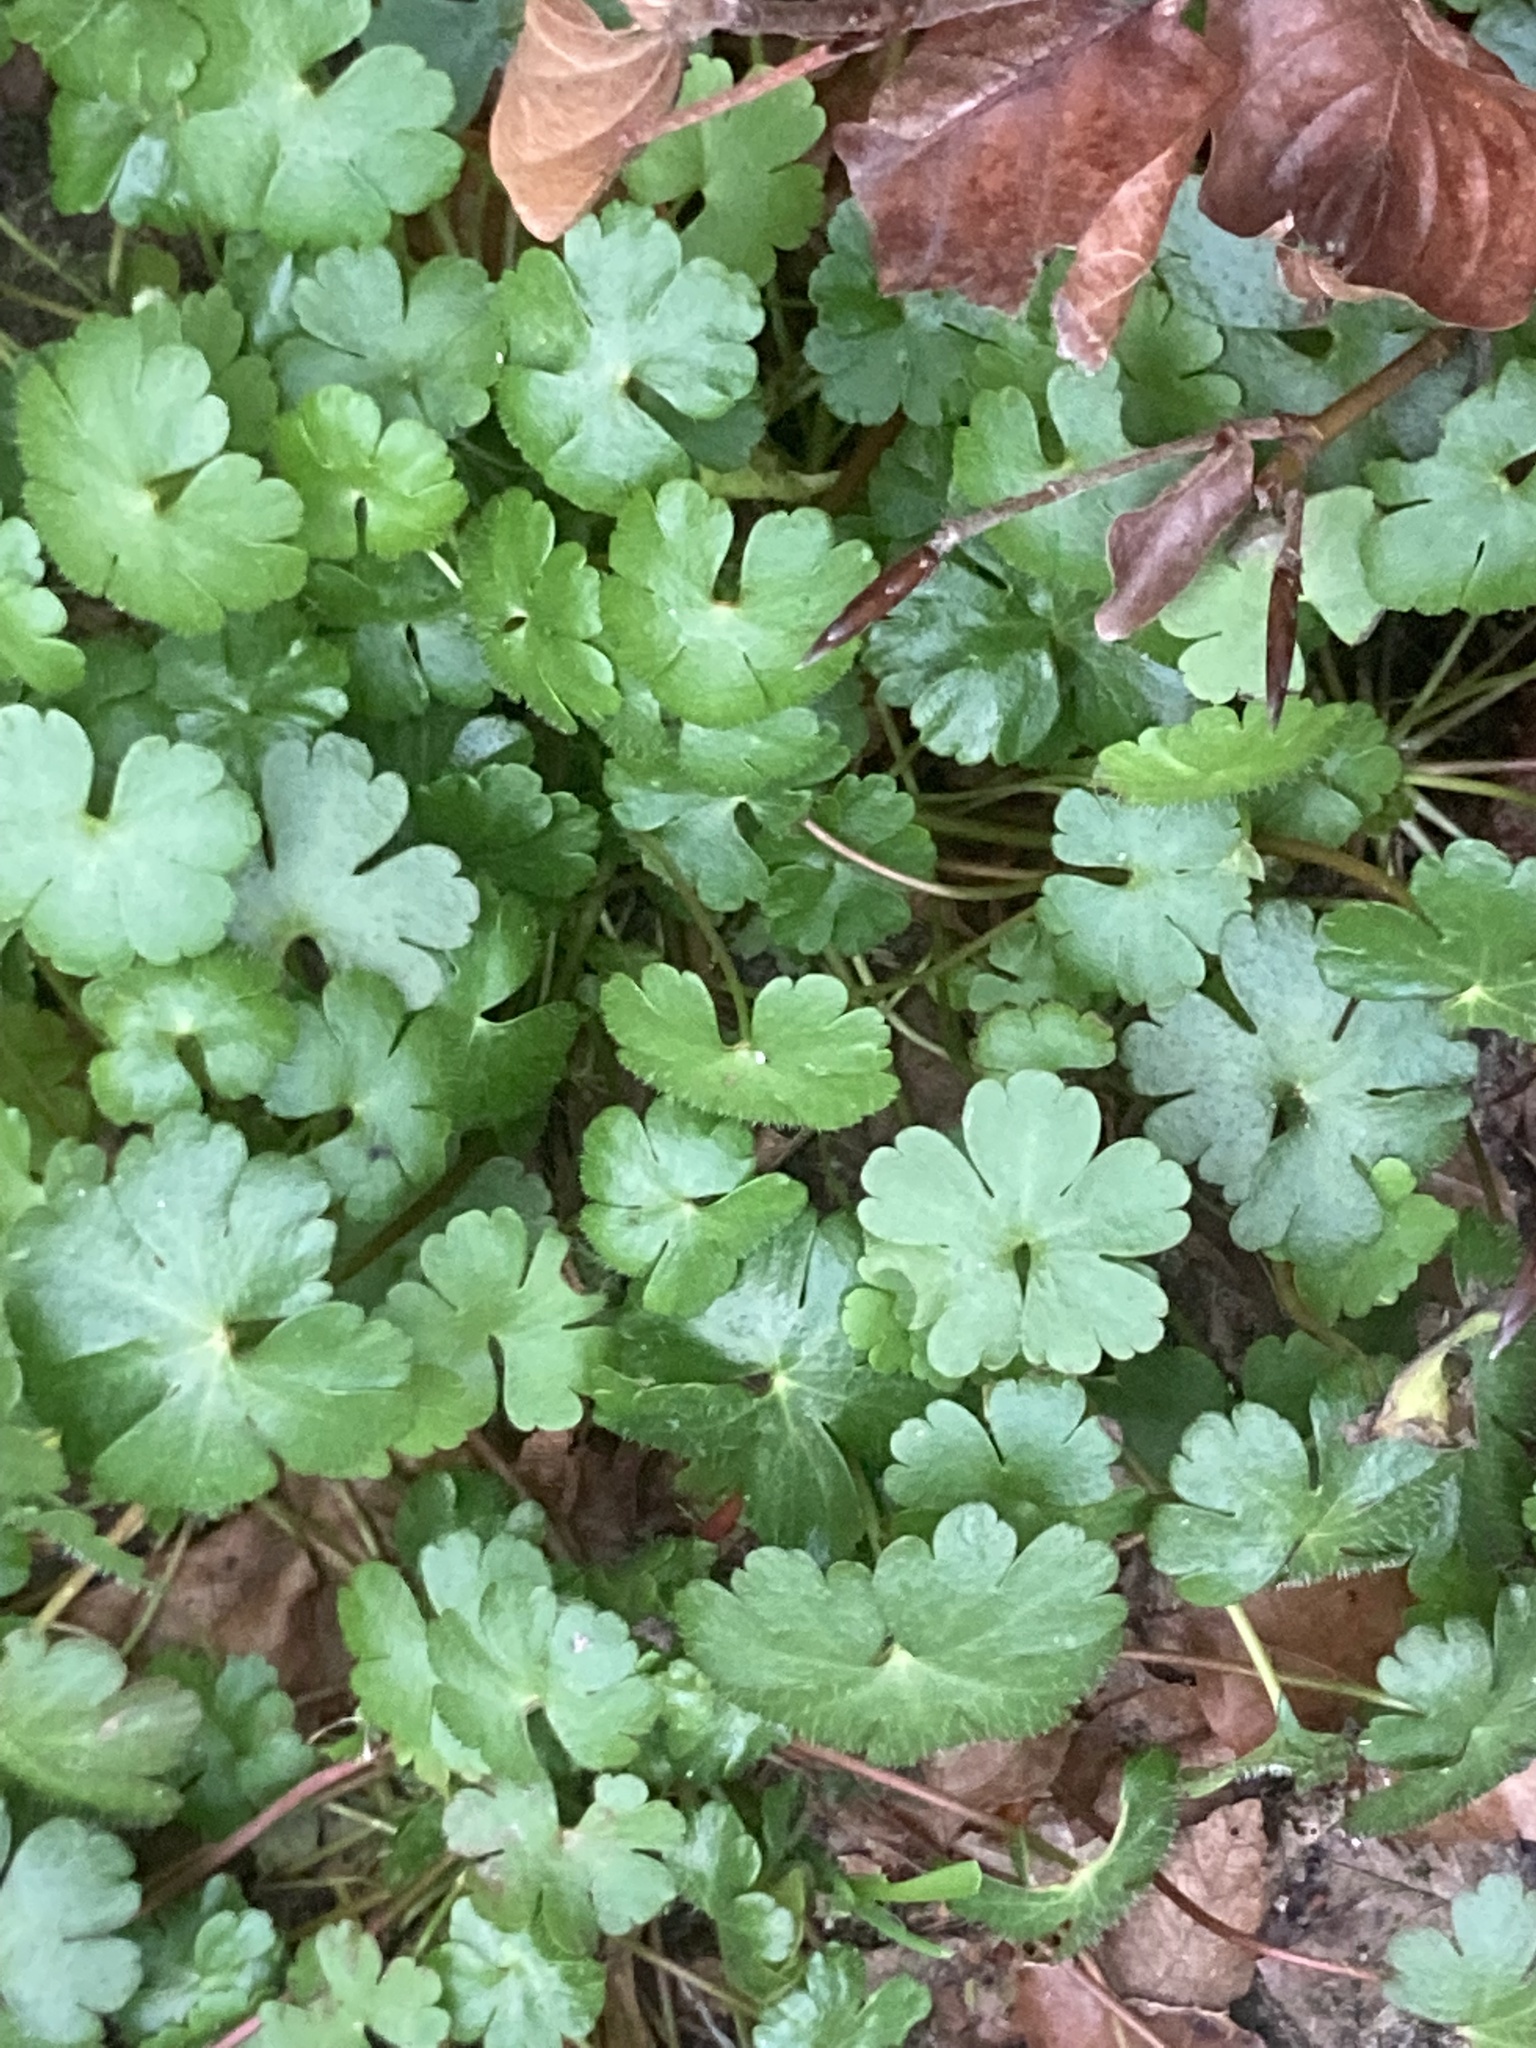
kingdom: Plantae
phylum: Tracheophyta
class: Magnoliopsida
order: Geraniales
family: Geraniaceae
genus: Geranium
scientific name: Geranium lucidum
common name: Shining crane's-bill
